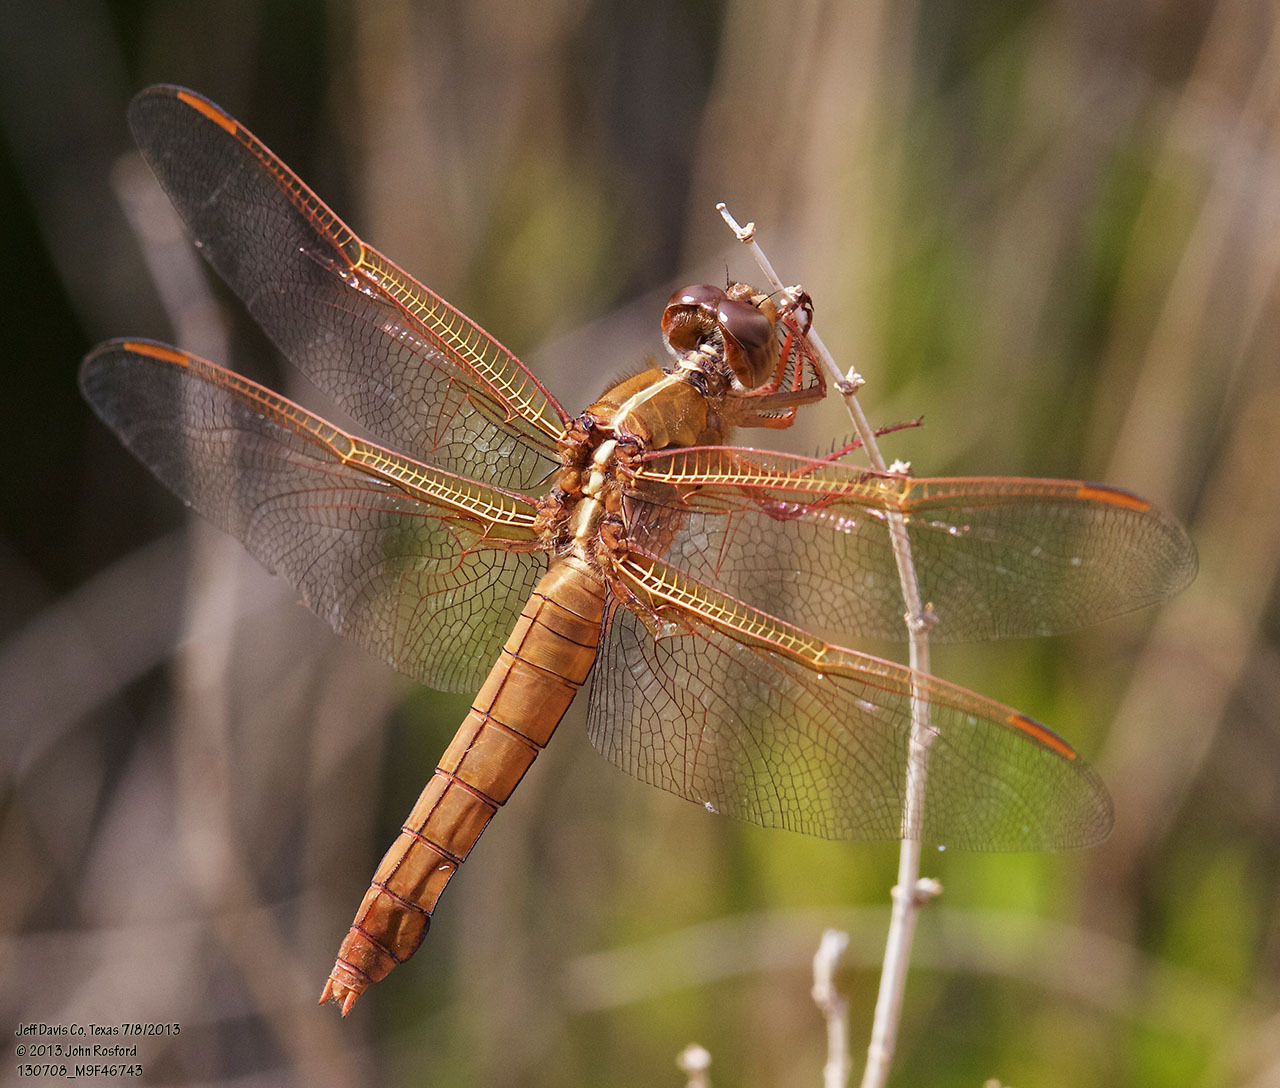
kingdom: Animalia
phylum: Arthropoda
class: Insecta
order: Odonata
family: Libellulidae
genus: Libellula
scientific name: Libellula saturata
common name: Flame skimmer
